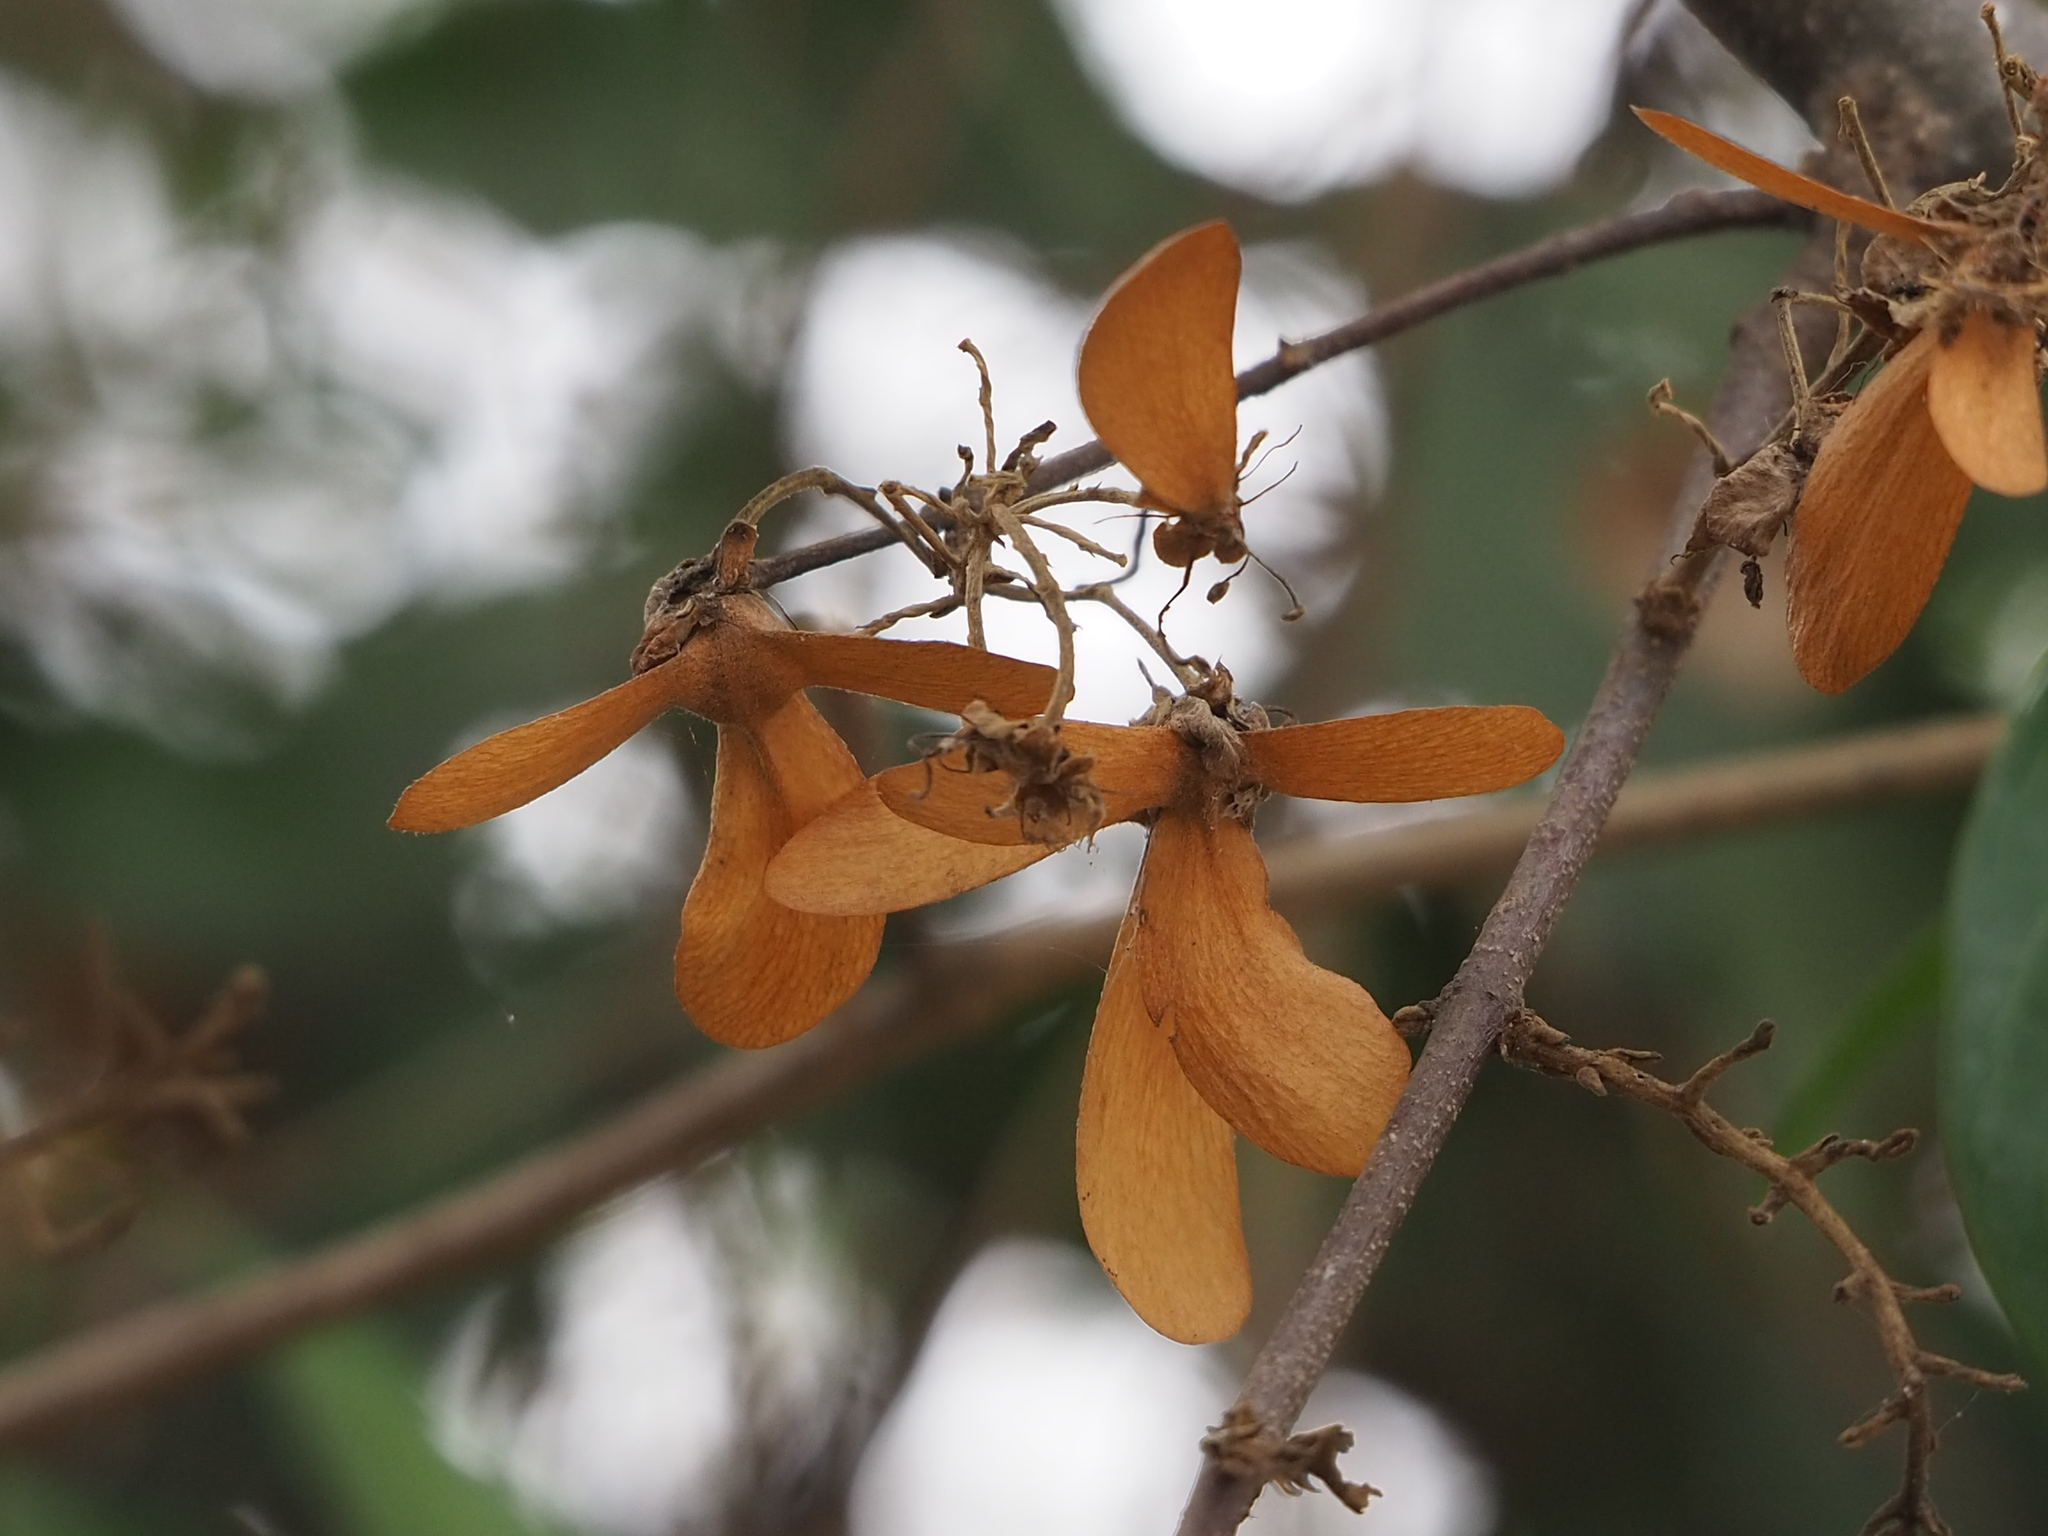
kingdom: Plantae
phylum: Tracheophyta
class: Magnoliopsida
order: Malpighiales
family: Malpighiaceae
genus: Hiptage
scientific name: Hiptage benghalensis
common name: Hiptage
